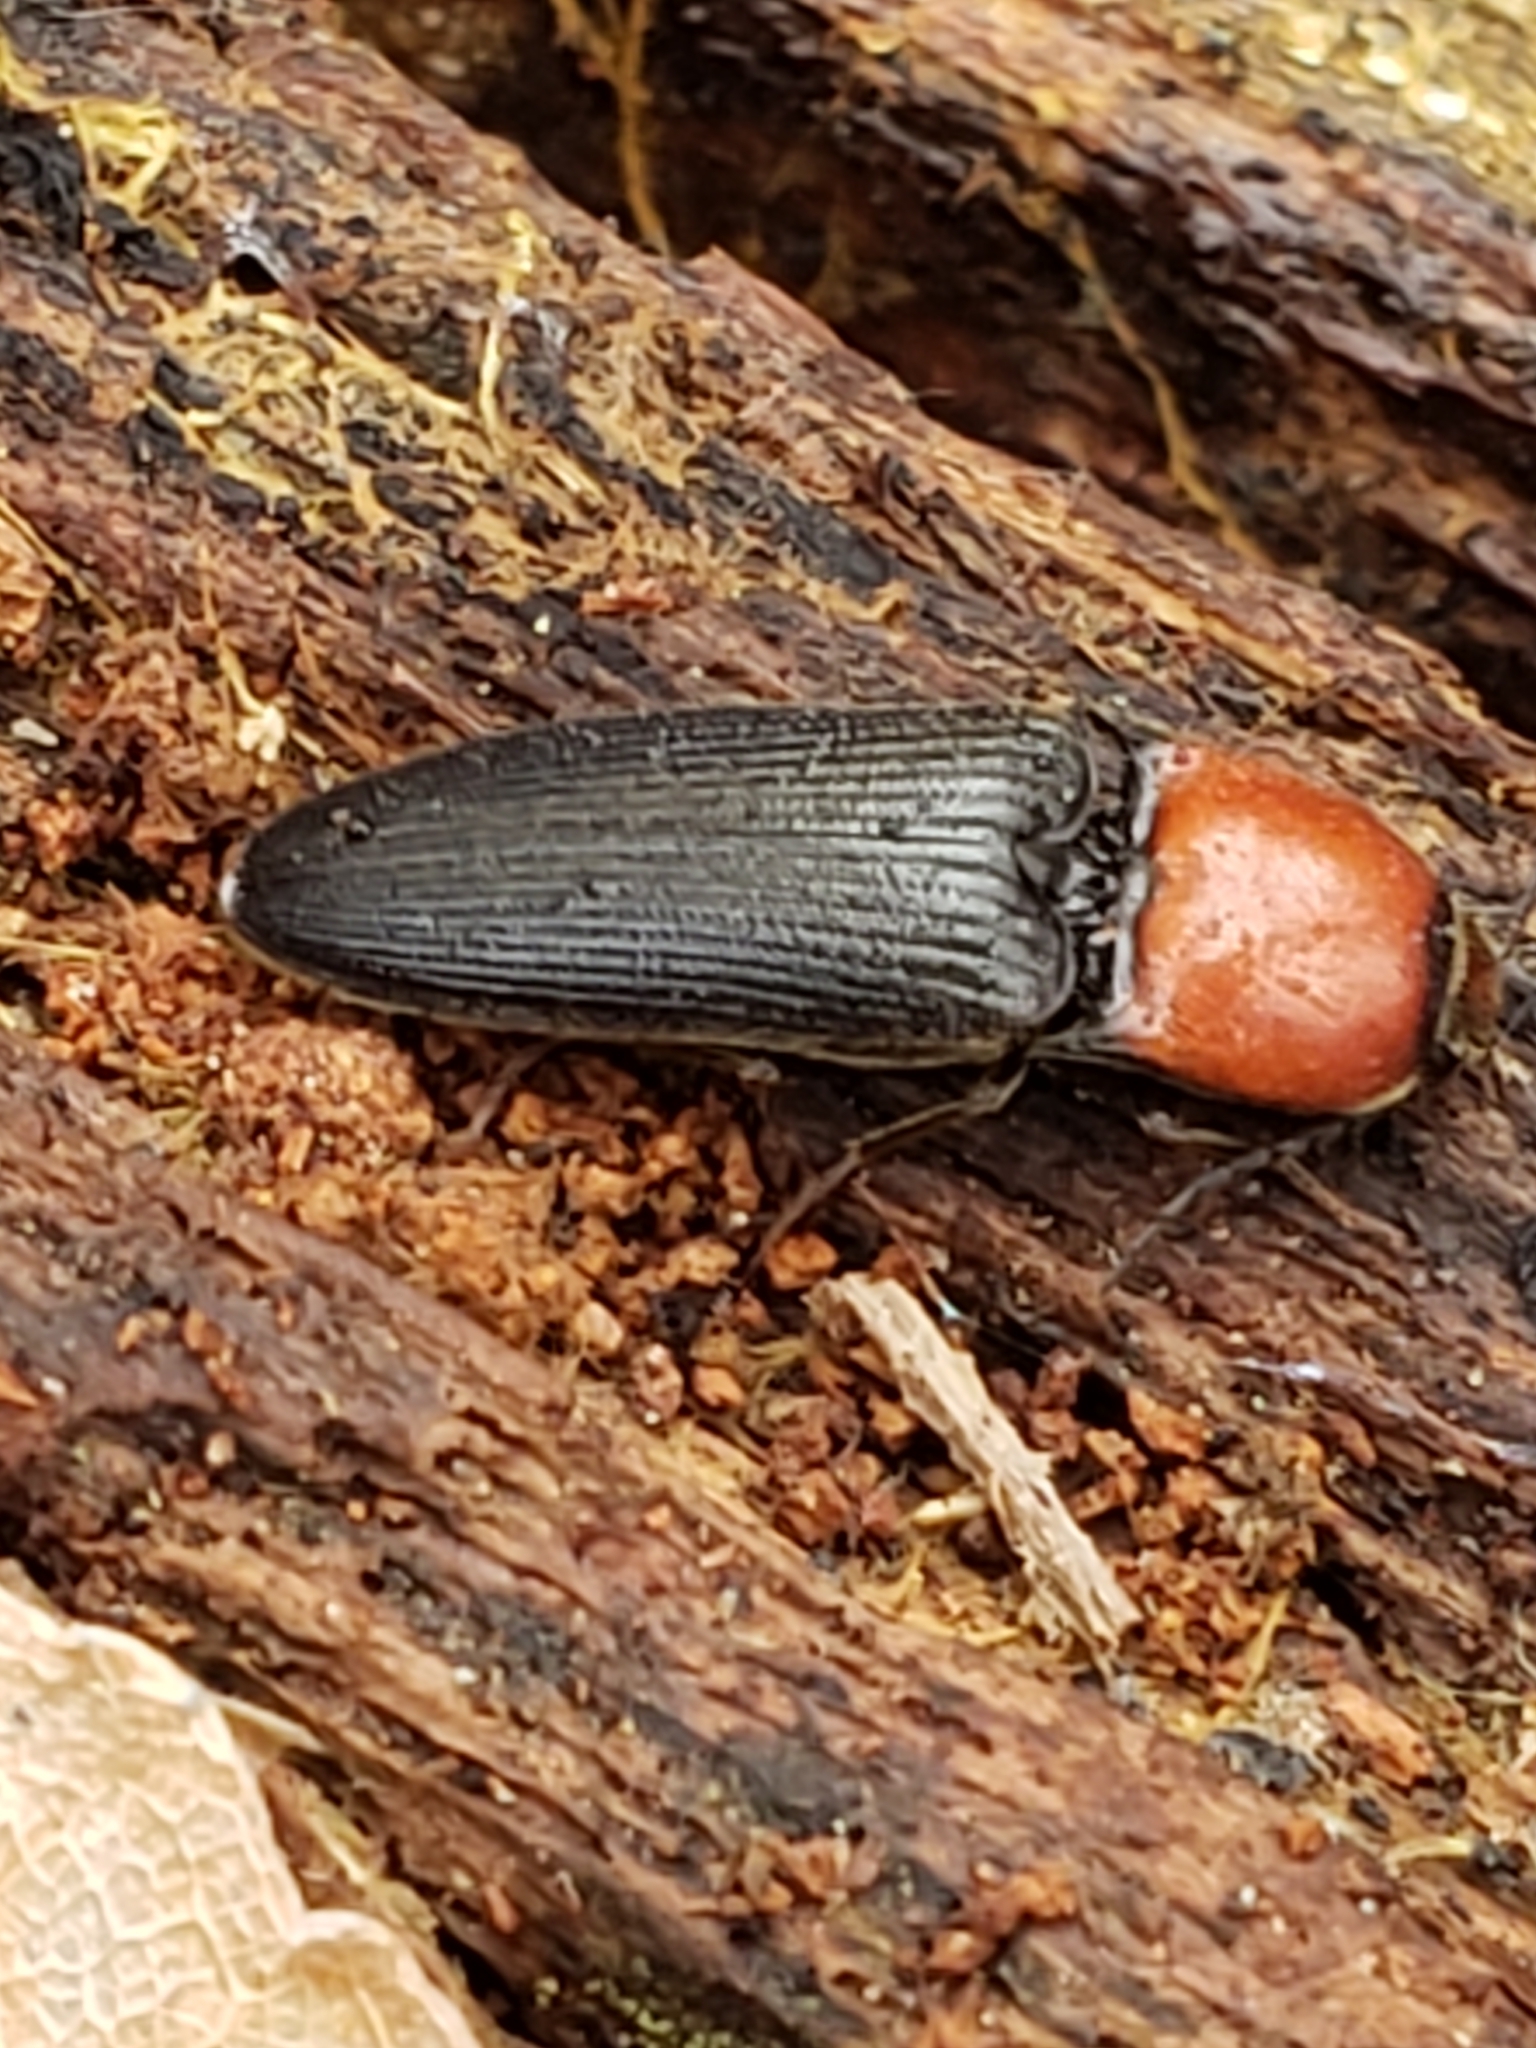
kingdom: Animalia
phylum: Arthropoda
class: Insecta
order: Coleoptera
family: Elateridae
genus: Ampedus
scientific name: Ampedus rubricollis
